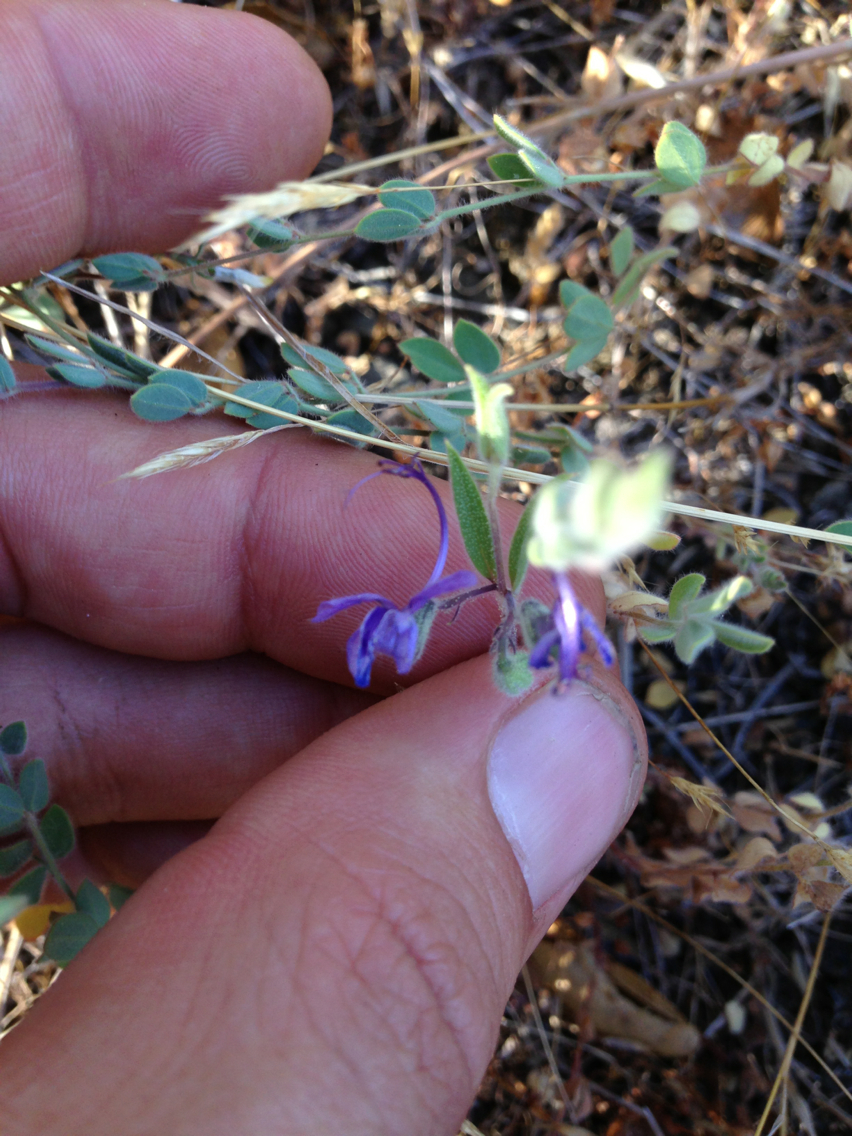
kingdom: Plantae
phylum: Tracheophyta
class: Magnoliopsida
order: Lamiales
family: Lamiaceae
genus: Trichostema
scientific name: Trichostema lanceolatum
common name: Vinegar-weed
